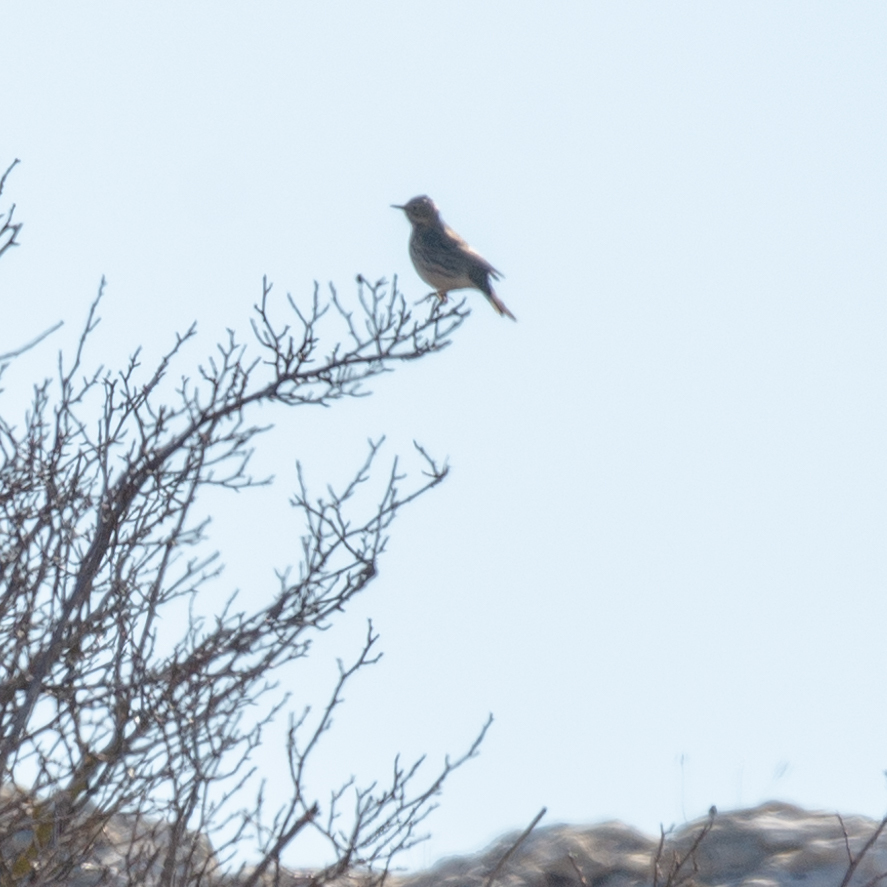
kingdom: Animalia
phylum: Chordata
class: Aves
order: Passeriformes
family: Motacillidae
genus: Anthus
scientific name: Anthus pratensis
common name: Meadow pipit
